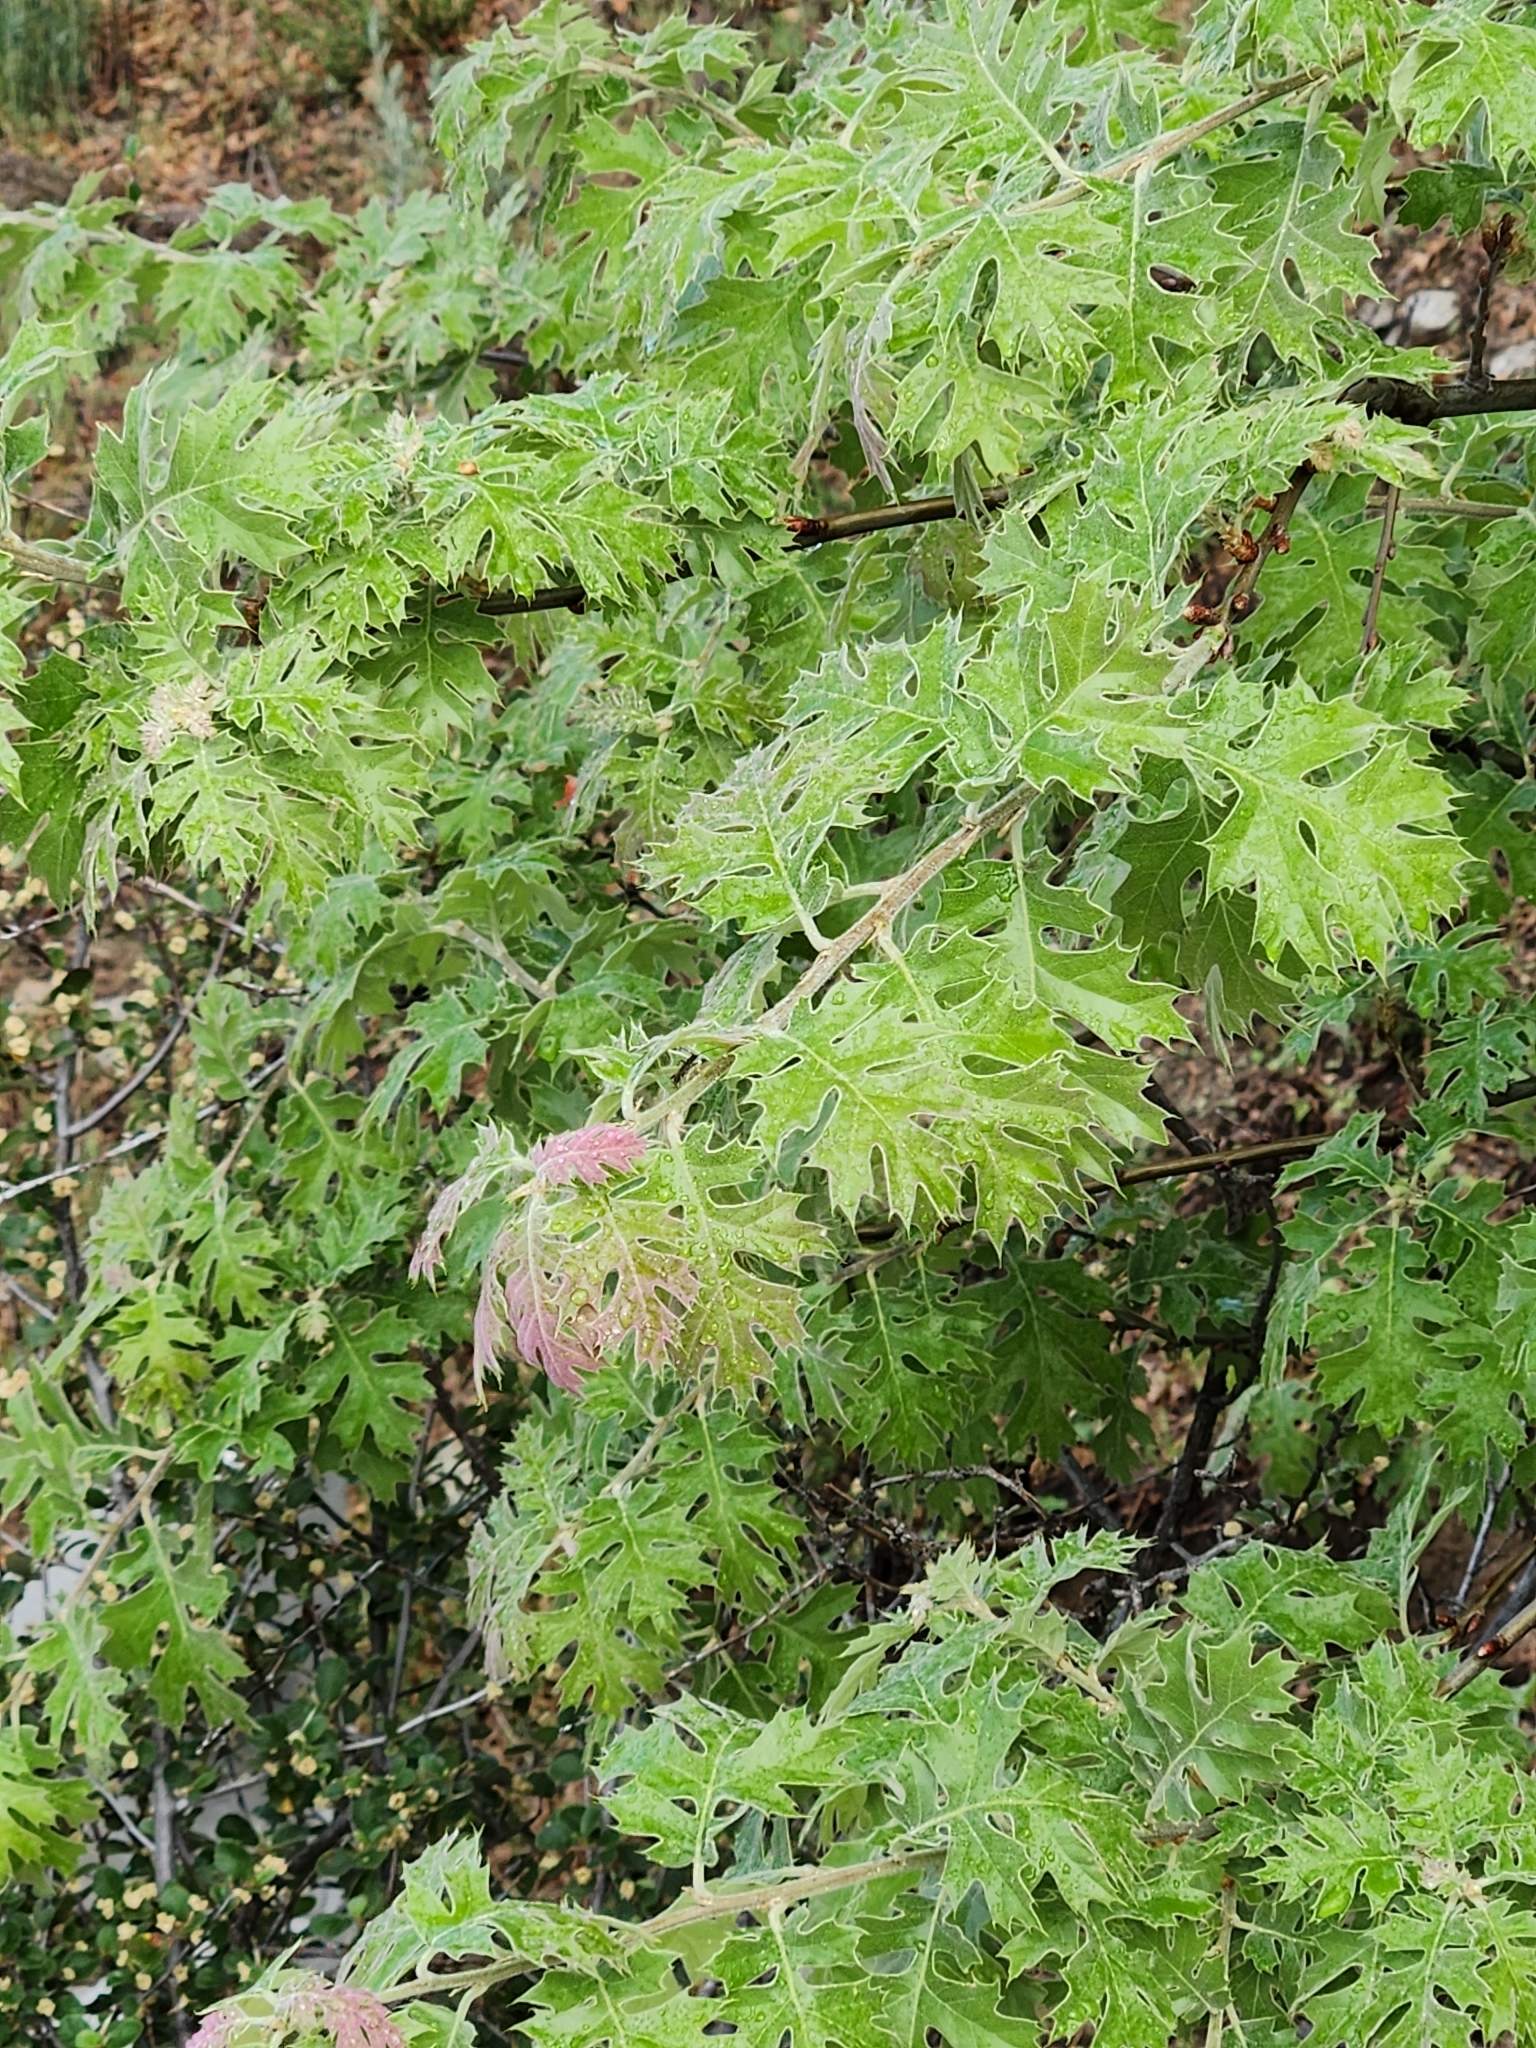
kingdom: Plantae
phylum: Tracheophyta
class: Magnoliopsida
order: Fagales
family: Fagaceae
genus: Quercus
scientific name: Quercus kelloggii
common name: California black oak
